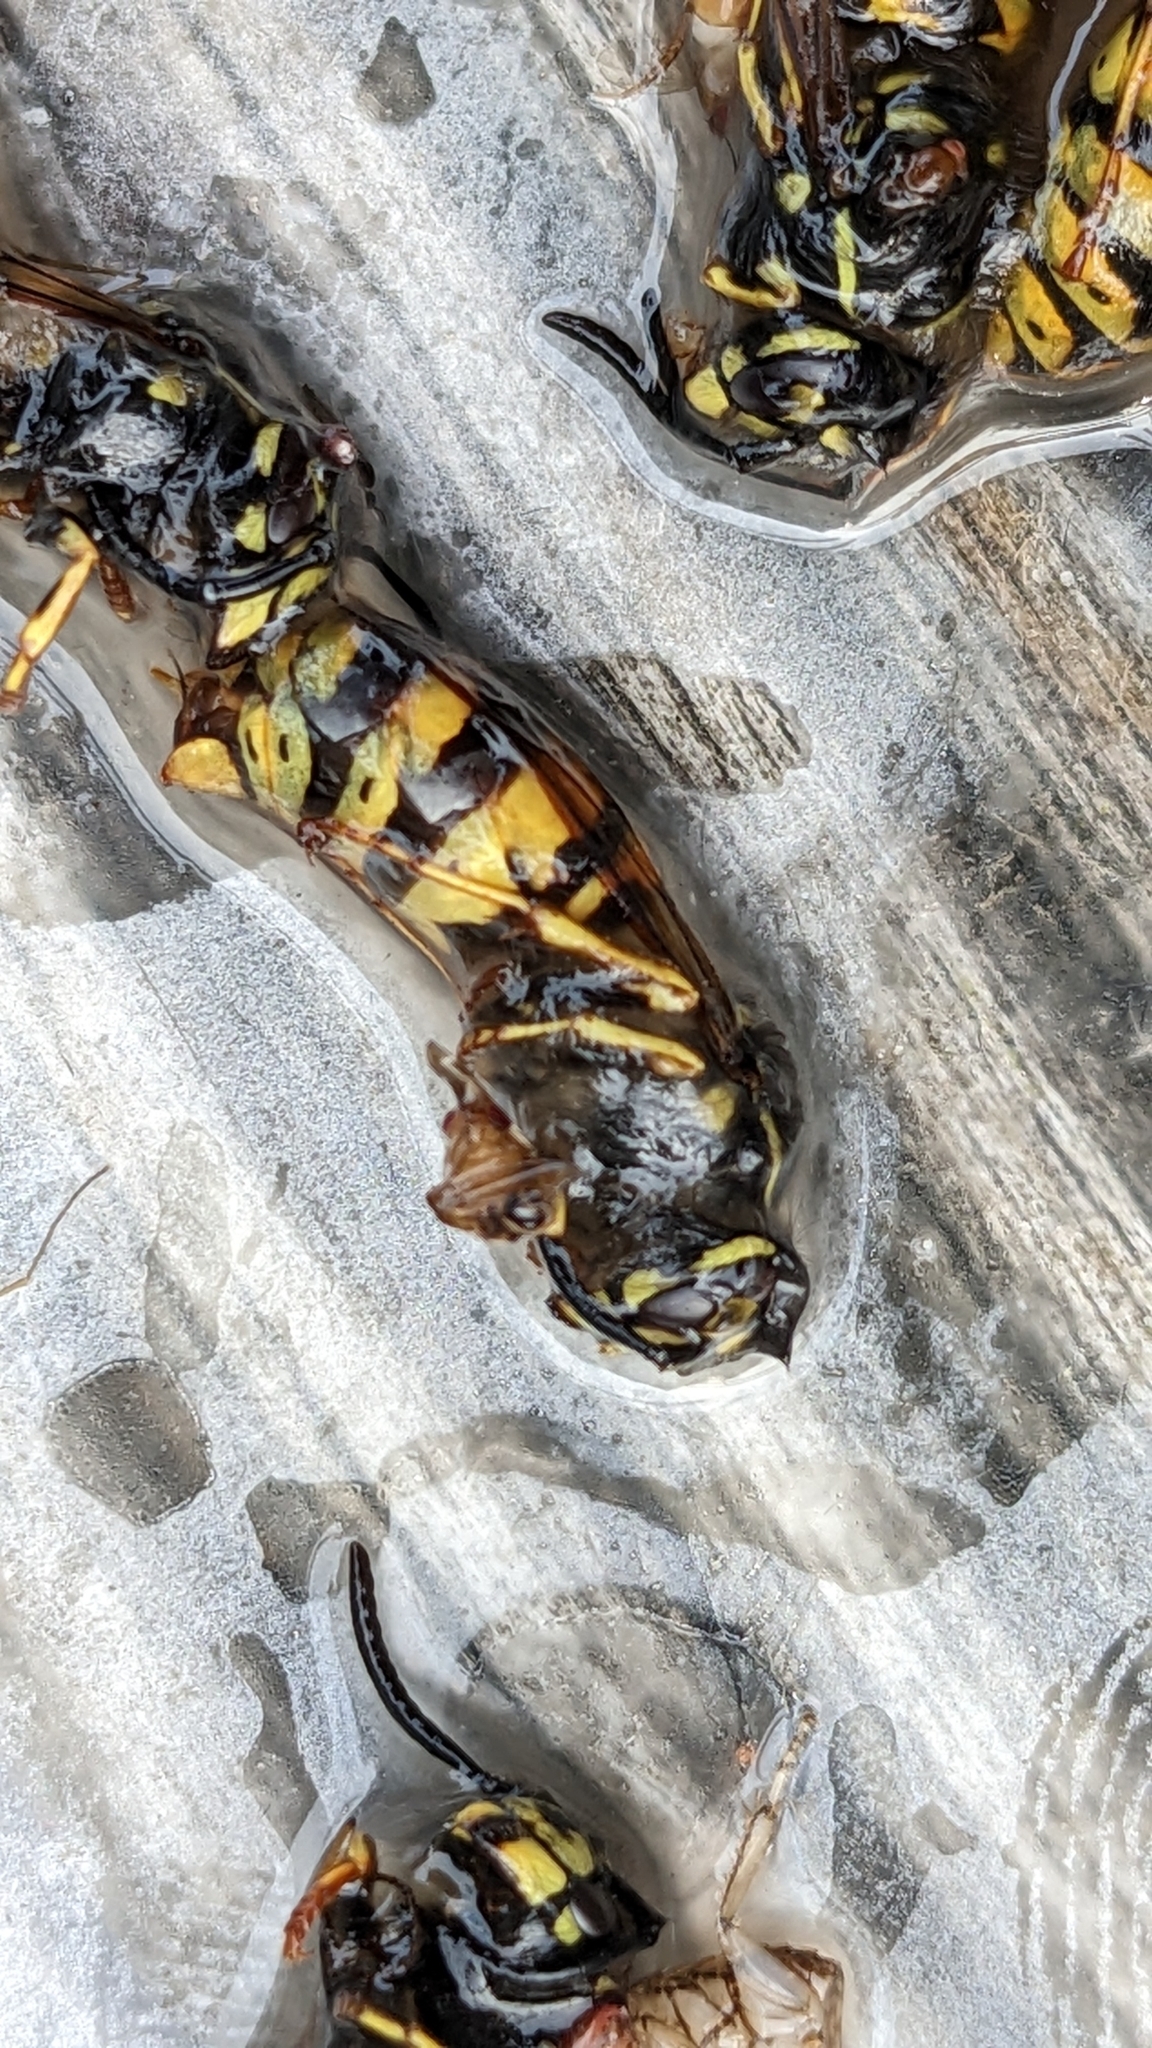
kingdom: Animalia
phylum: Arthropoda
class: Insecta
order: Hymenoptera
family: Vespidae
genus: Vespula
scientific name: Vespula vulgaris
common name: Common wasp
